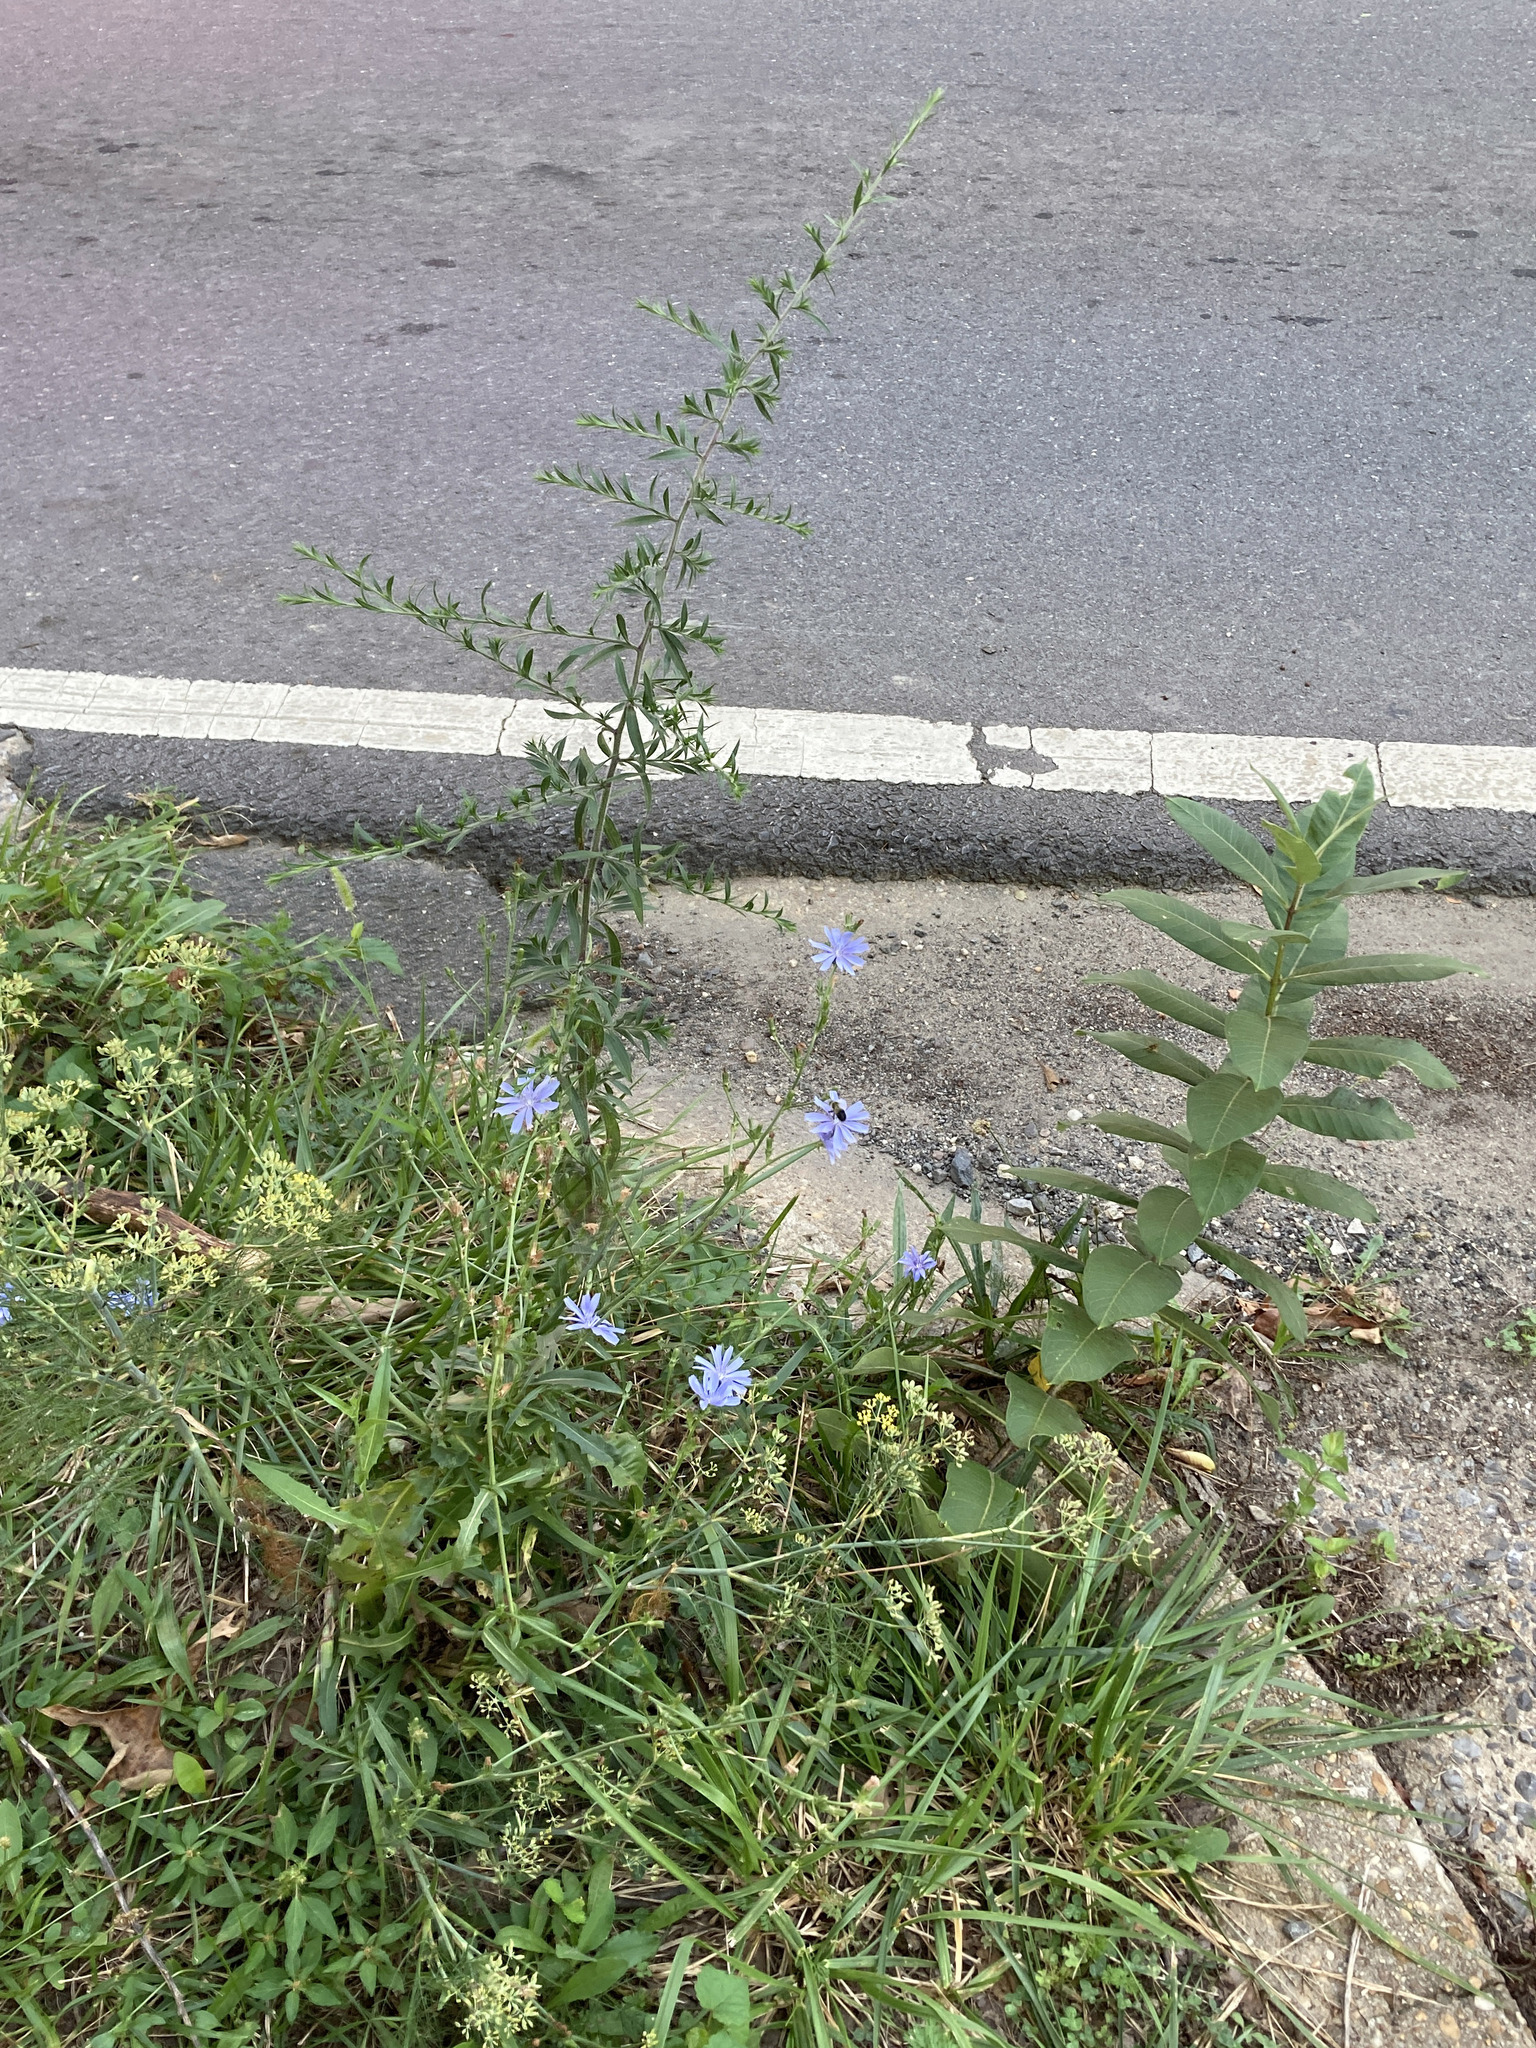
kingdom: Plantae
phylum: Tracheophyta
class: Magnoliopsida
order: Asterales
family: Asteraceae
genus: Cichorium
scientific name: Cichorium intybus
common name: Chicory
